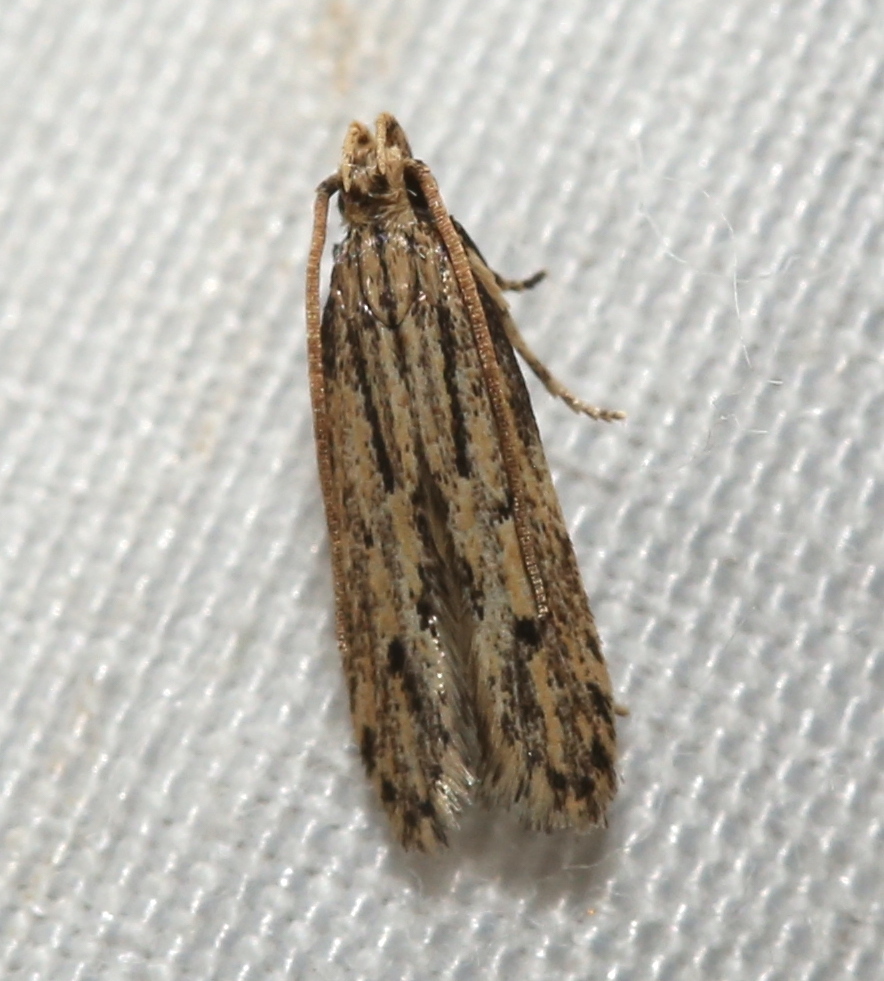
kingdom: Animalia
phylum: Arthropoda
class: Insecta
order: Lepidoptera
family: Autostichidae
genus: Spinitibia
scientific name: Spinitibia hodgesi
